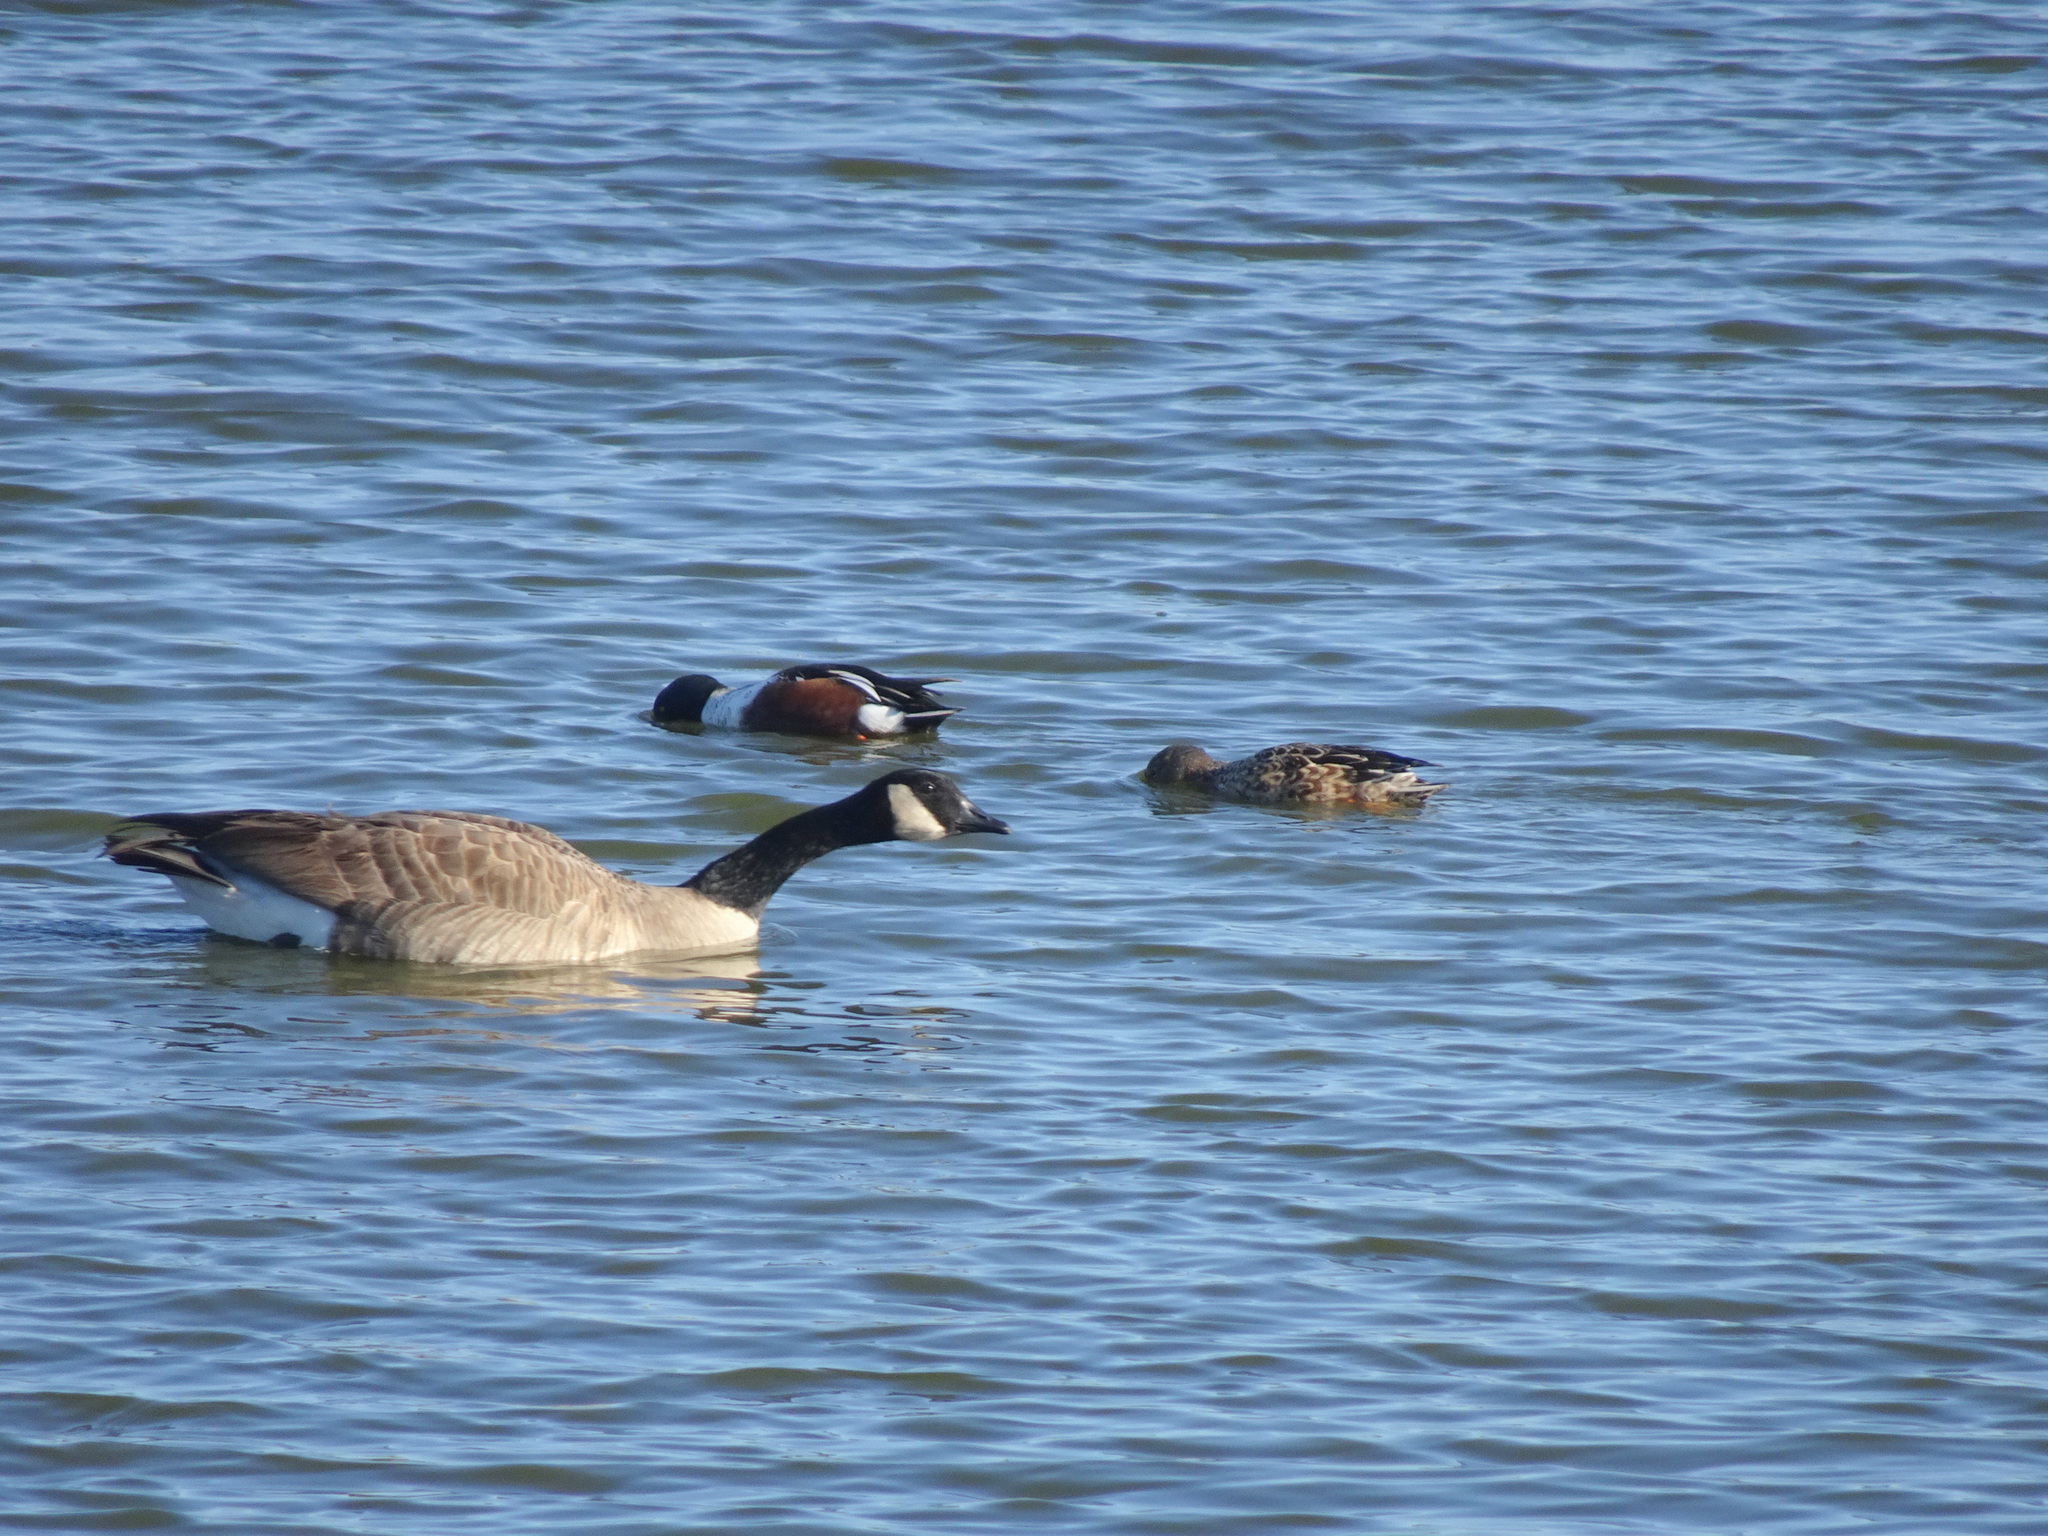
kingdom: Animalia
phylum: Chordata
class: Aves
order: Anseriformes
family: Anatidae
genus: Spatula
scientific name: Spatula clypeata
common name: Northern shoveler
